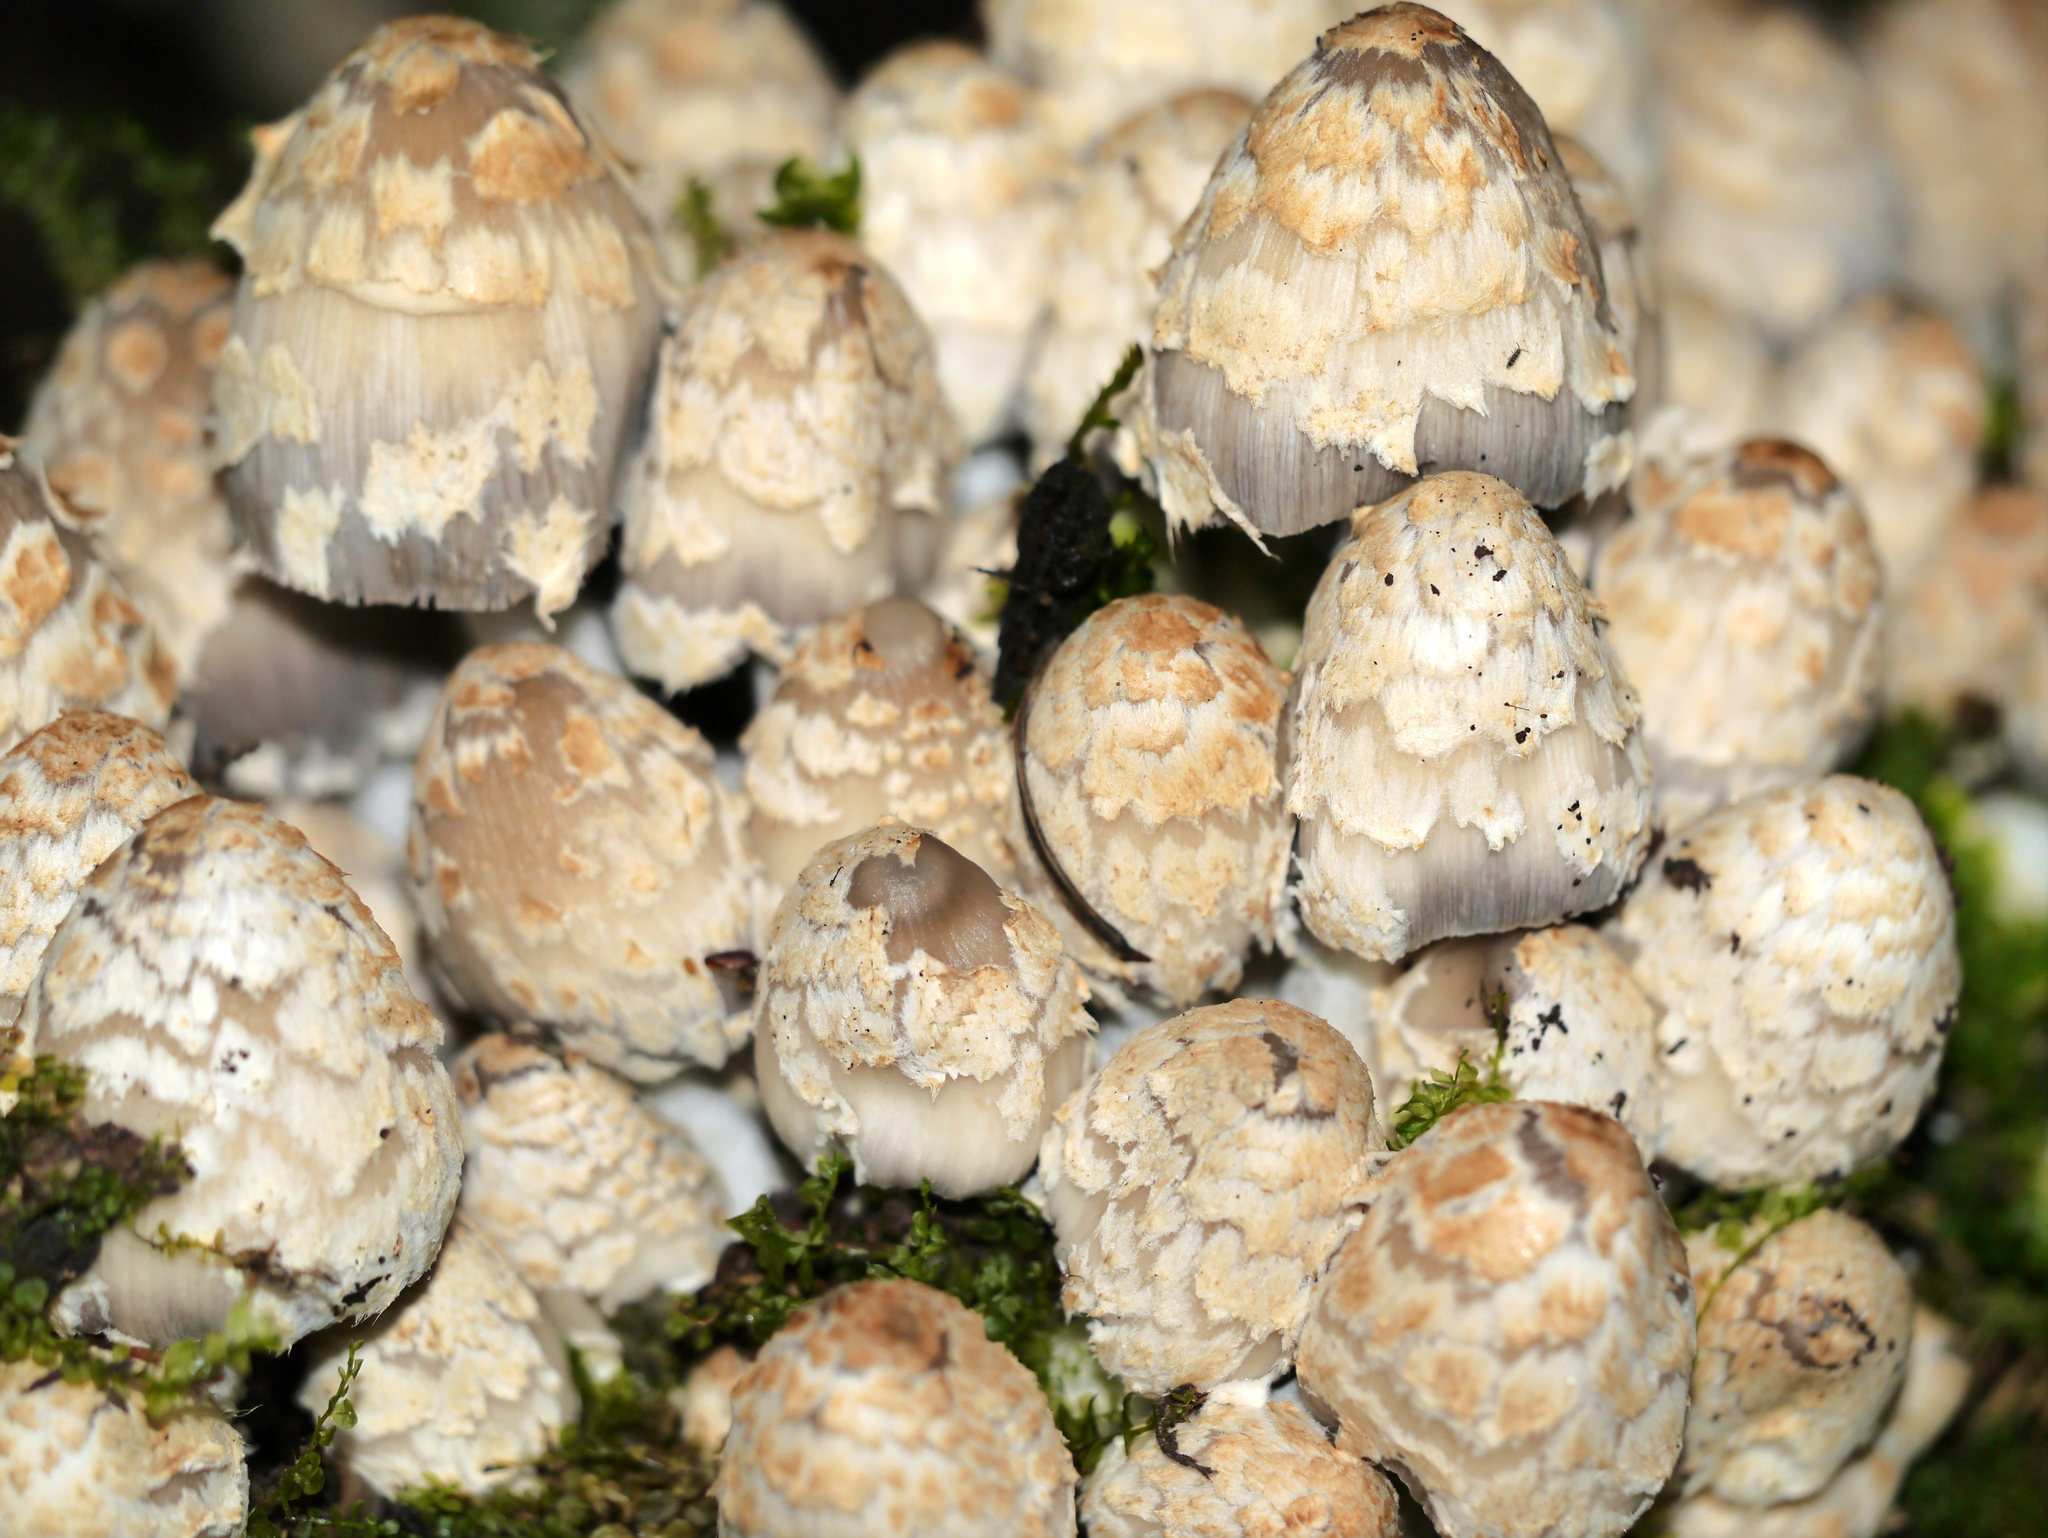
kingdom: Fungi
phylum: Basidiomycota
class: Agaricomycetes
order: Agaricales
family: Psathyrellaceae
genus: Coprinopsis
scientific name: Coprinopsis variegata
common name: Scaly ink cap
